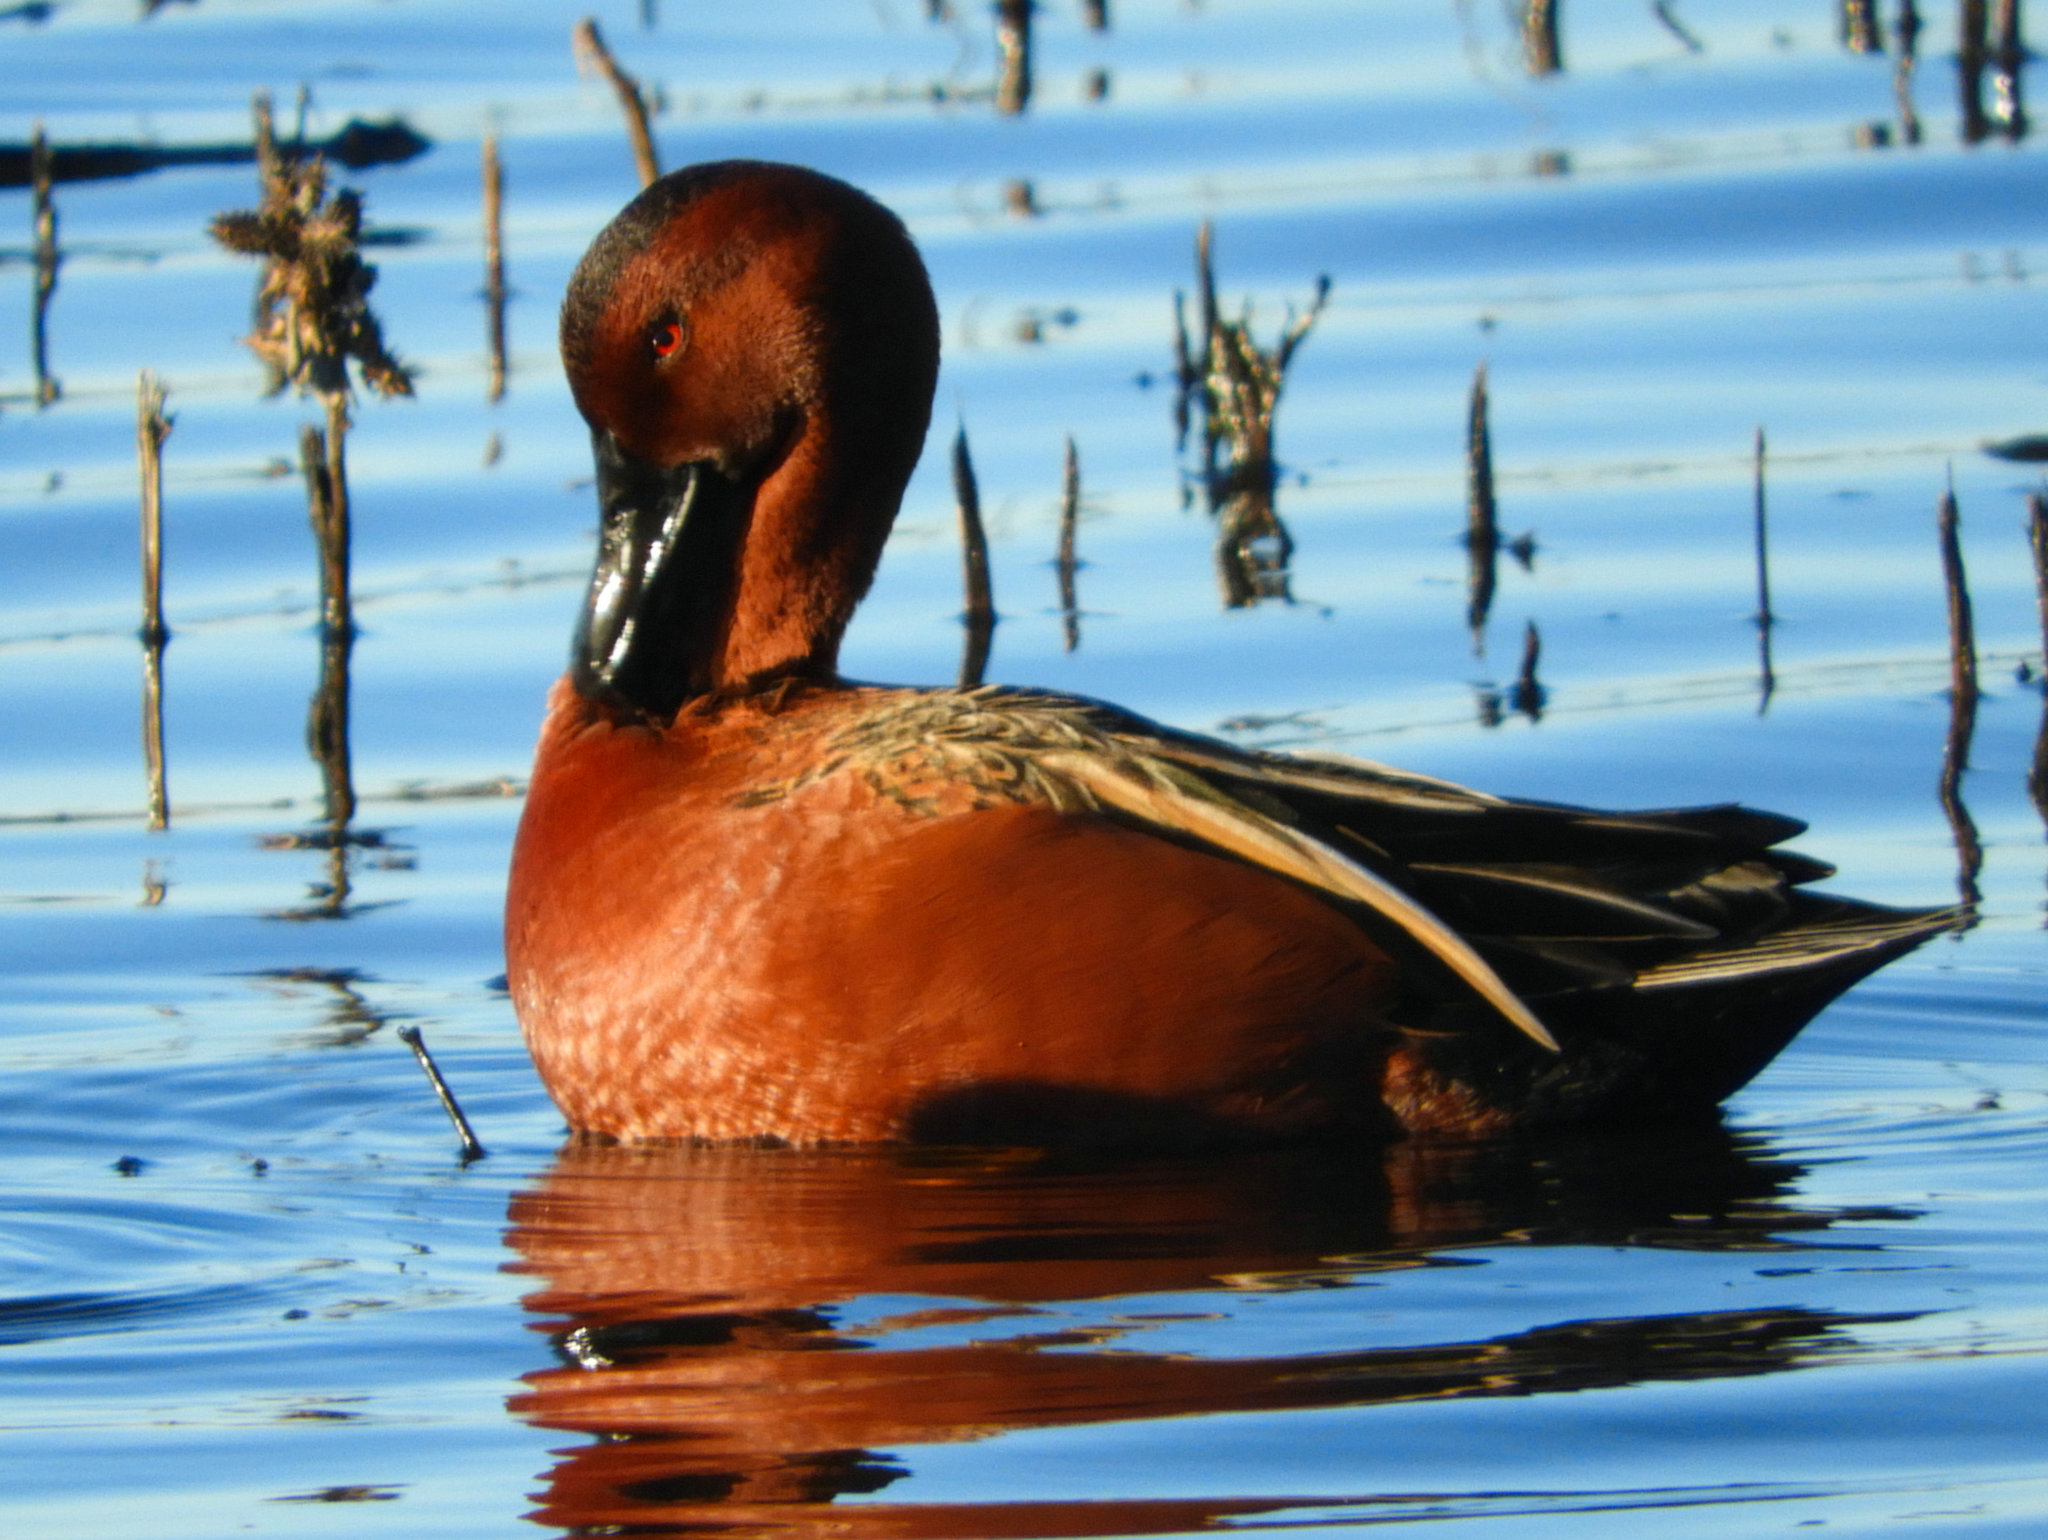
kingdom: Animalia
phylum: Chordata
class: Aves
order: Anseriformes
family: Anatidae
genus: Spatula
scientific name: Spatula cyanoptera
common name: Cinnamon teal
